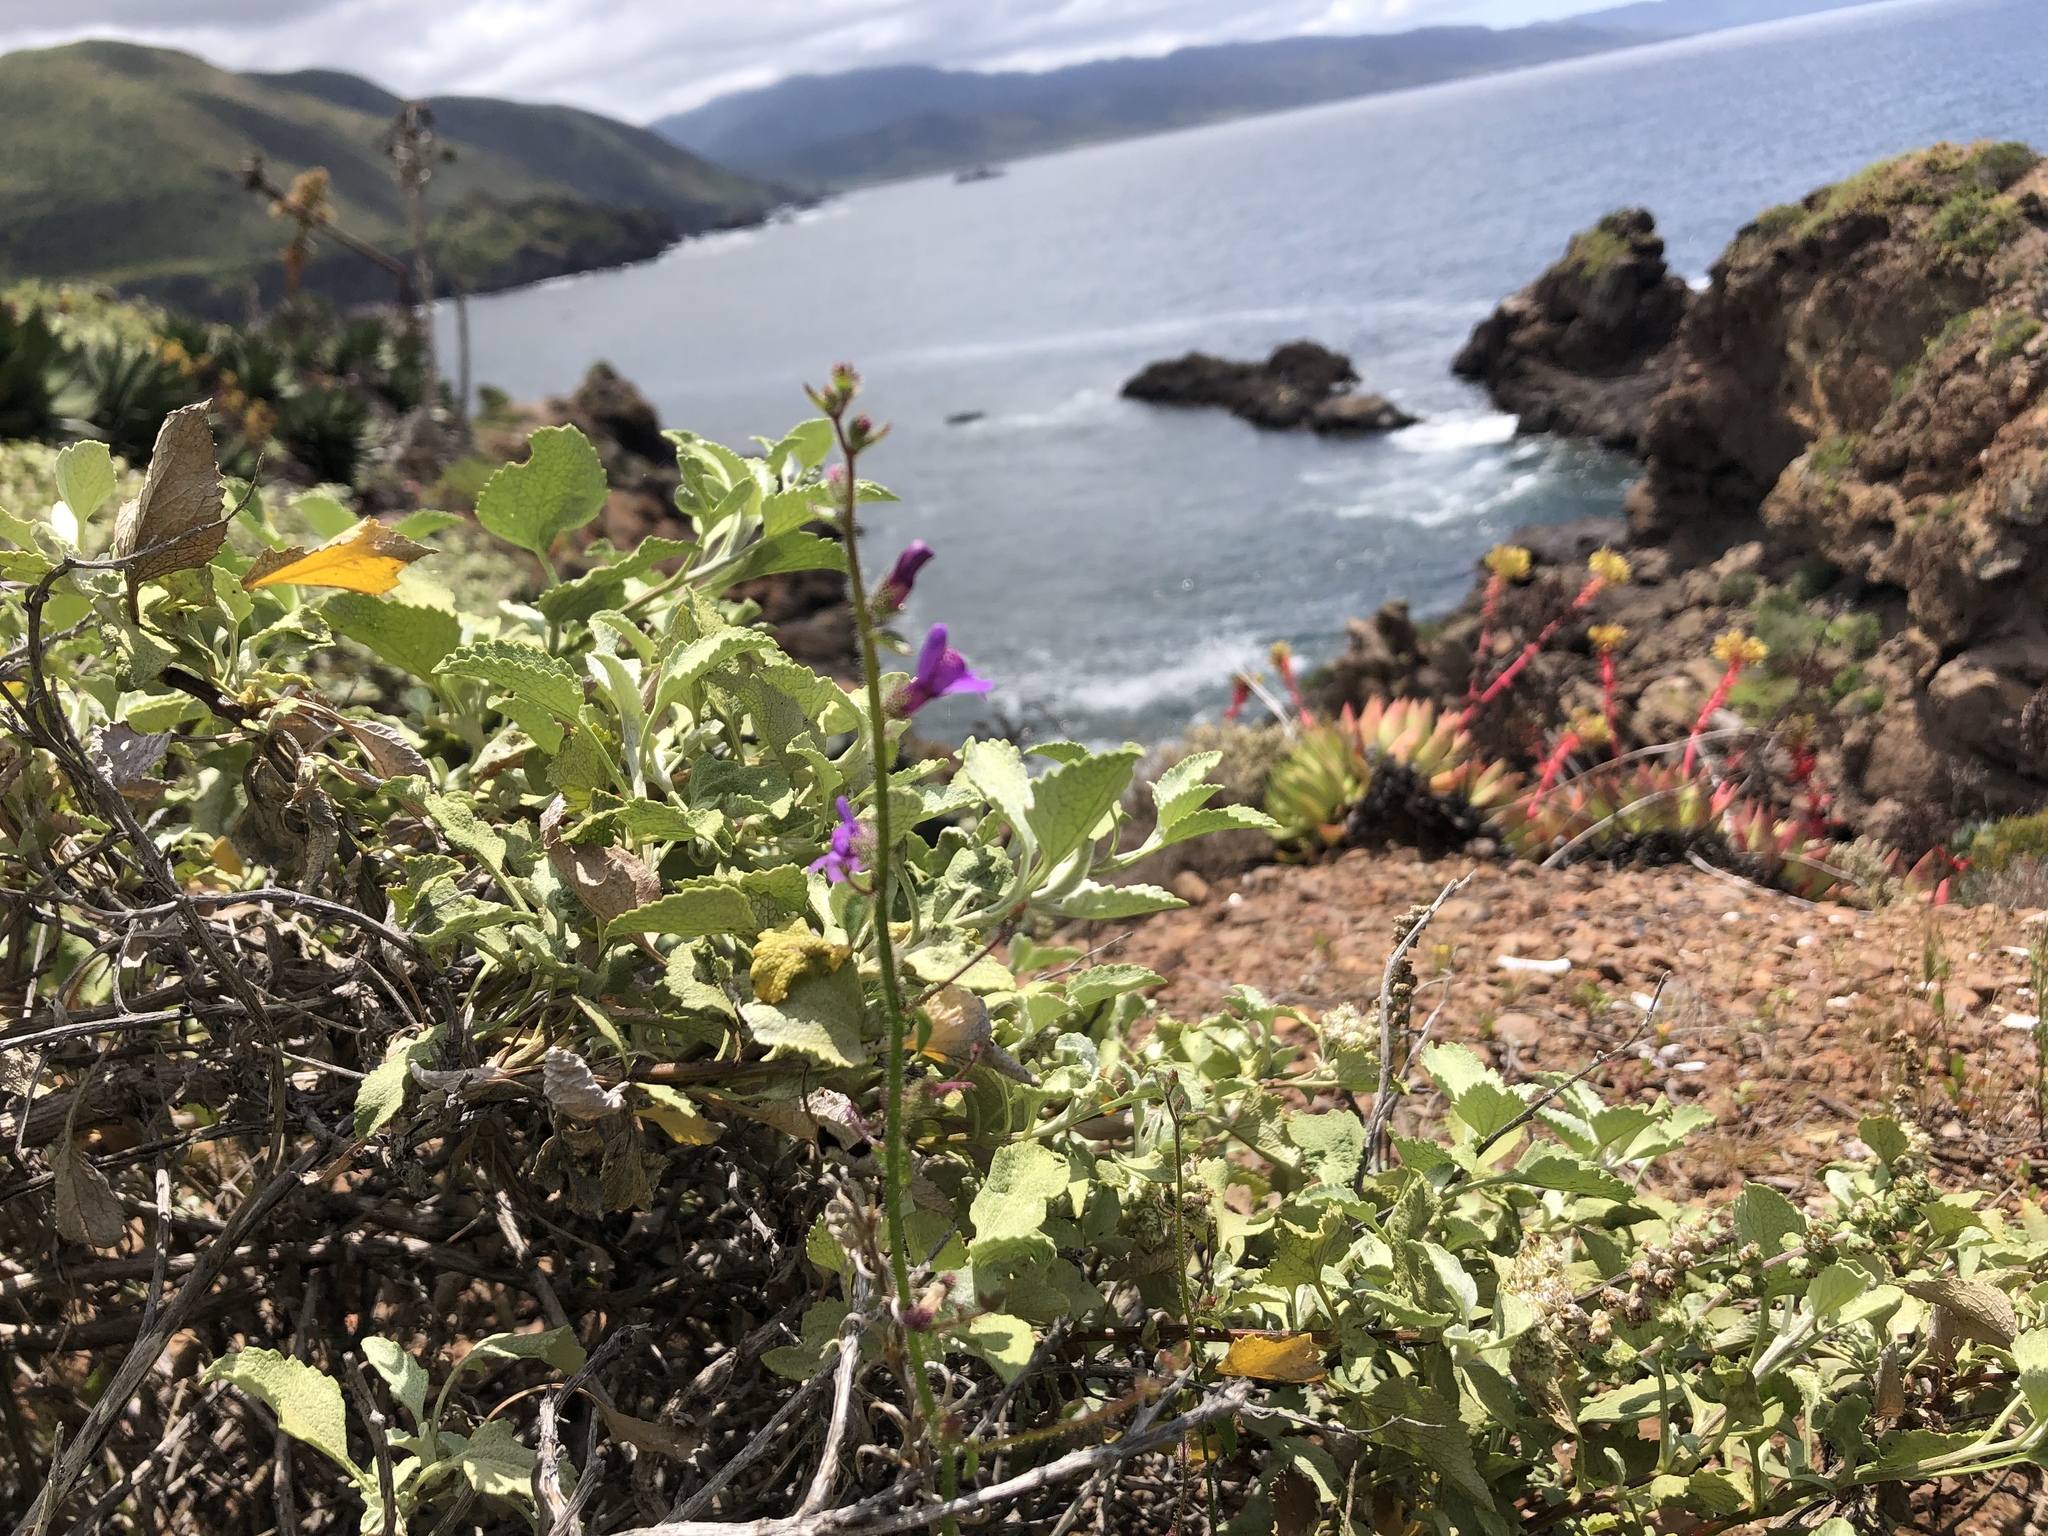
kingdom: Plantae
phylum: Tracheophyta
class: Magnoliopsida
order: Lamiales
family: Plantaginaceae
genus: Sairocarpus
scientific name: Sairocarpus nuttallianus
